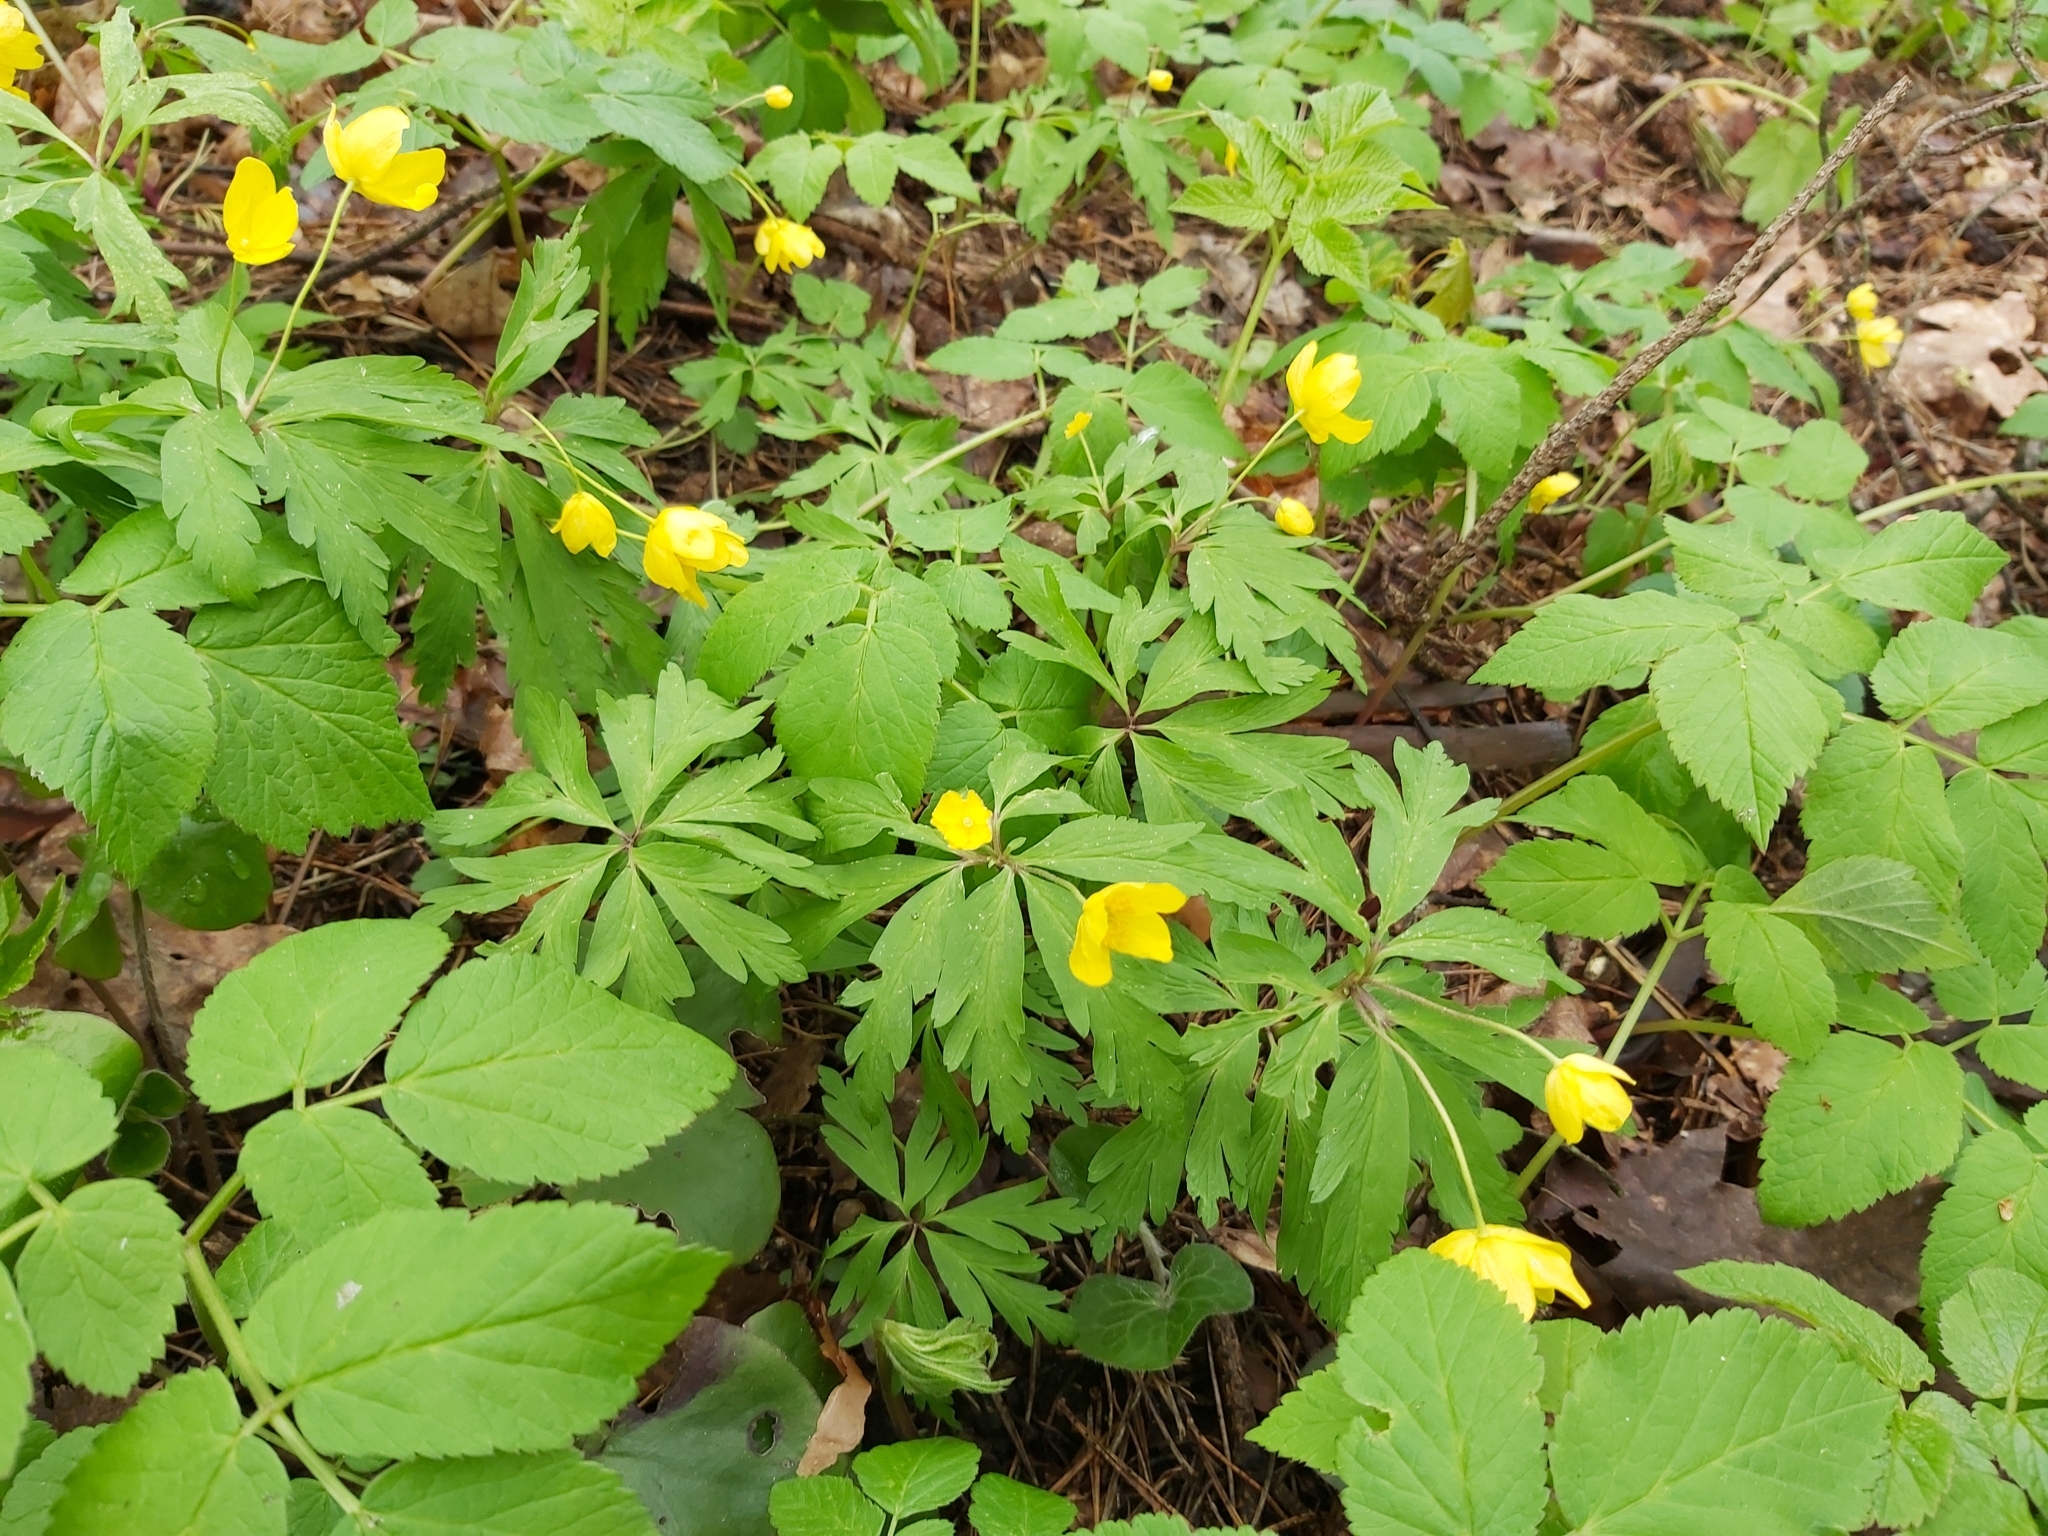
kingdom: Plantae
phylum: Tracheophyta
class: Magnoliopsida
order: Ranunculales
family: Ranunculaceae
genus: Anemone
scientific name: Anemone ranunculoides
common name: Yellow anemone
